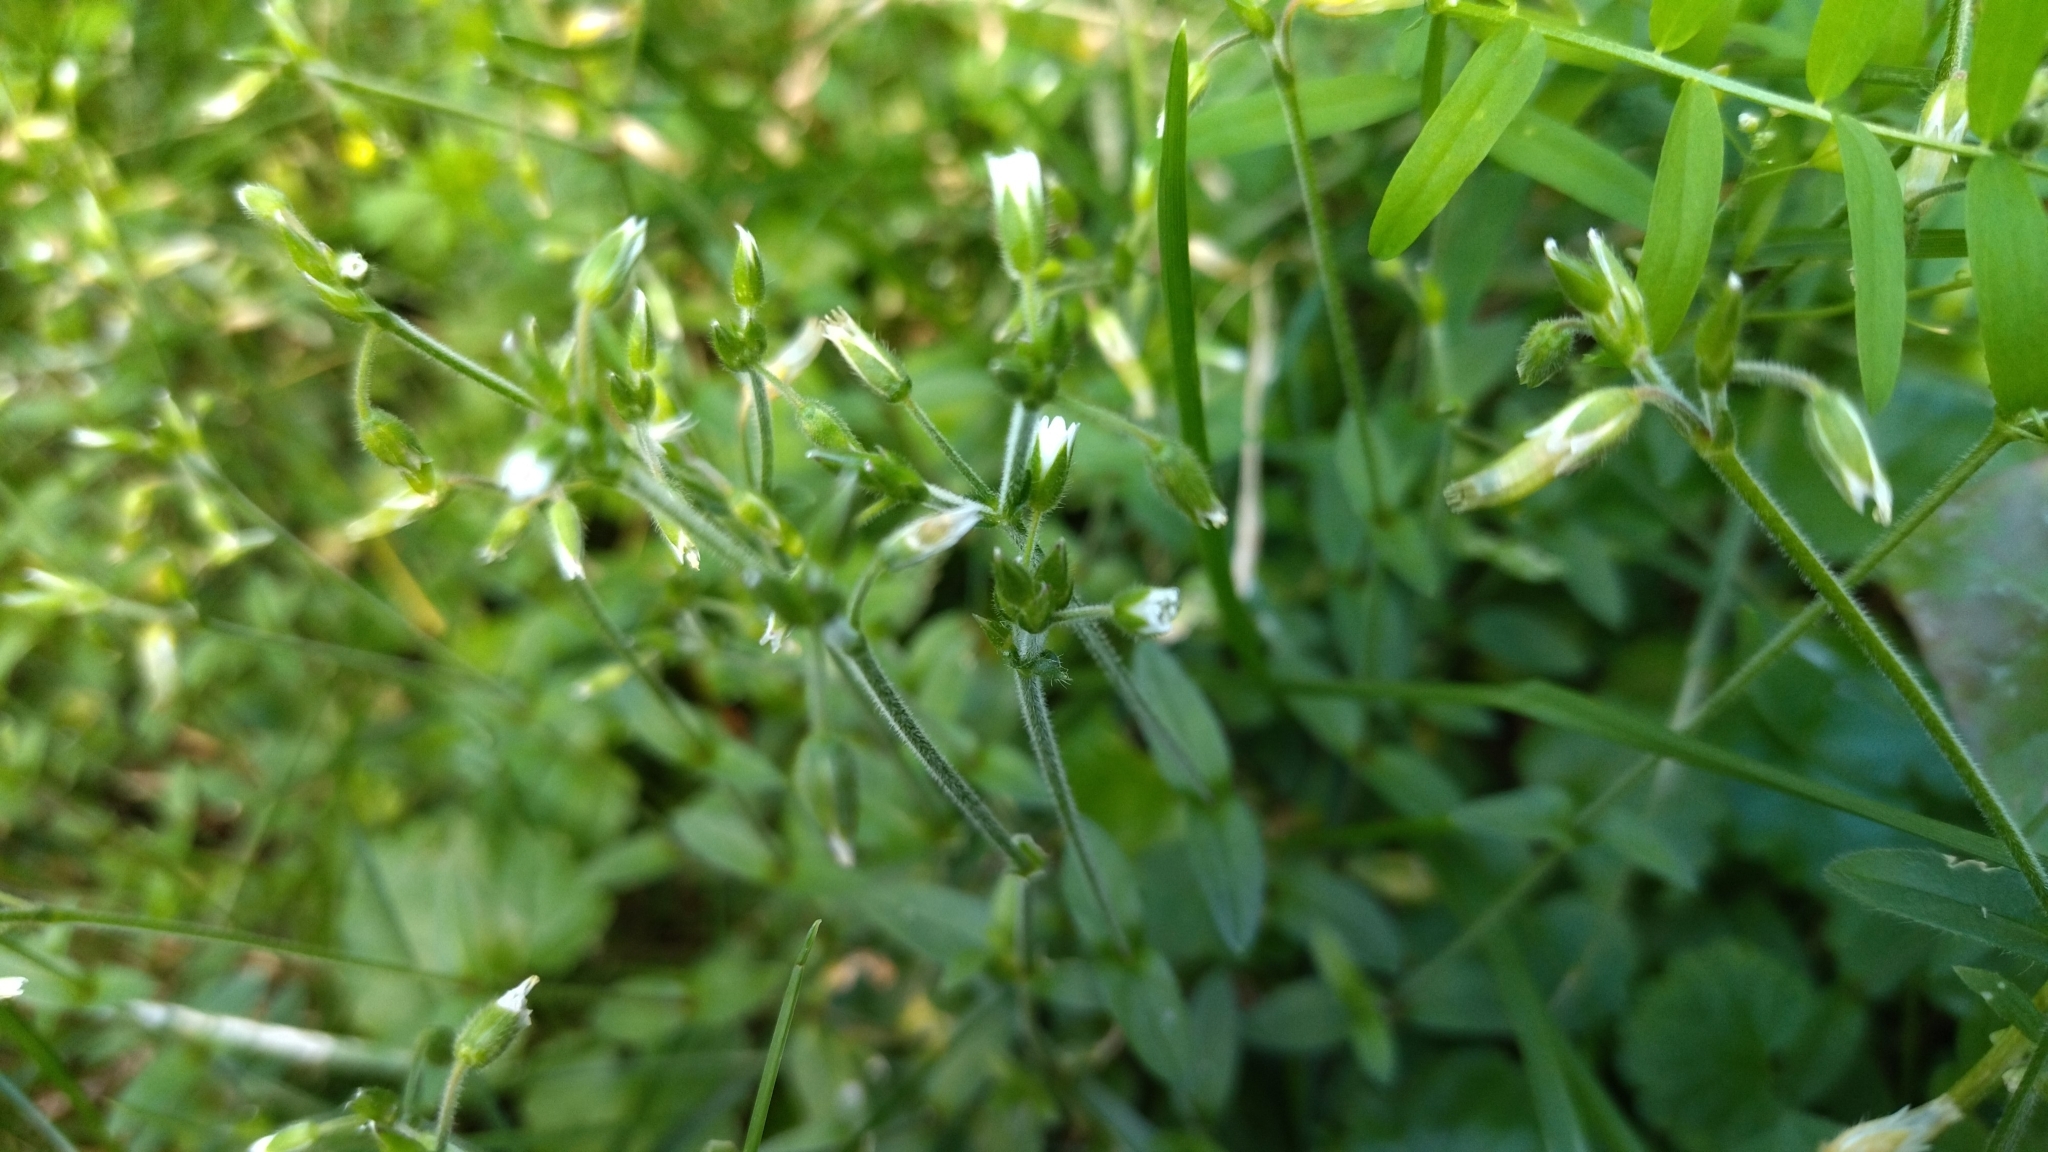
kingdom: Plantae
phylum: Tracheophyta
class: Magnoliopsida
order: Caryophyllales
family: Caryophyllaceae
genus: Cerastium
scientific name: Cerastium holosteoides
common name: Big chickweed
